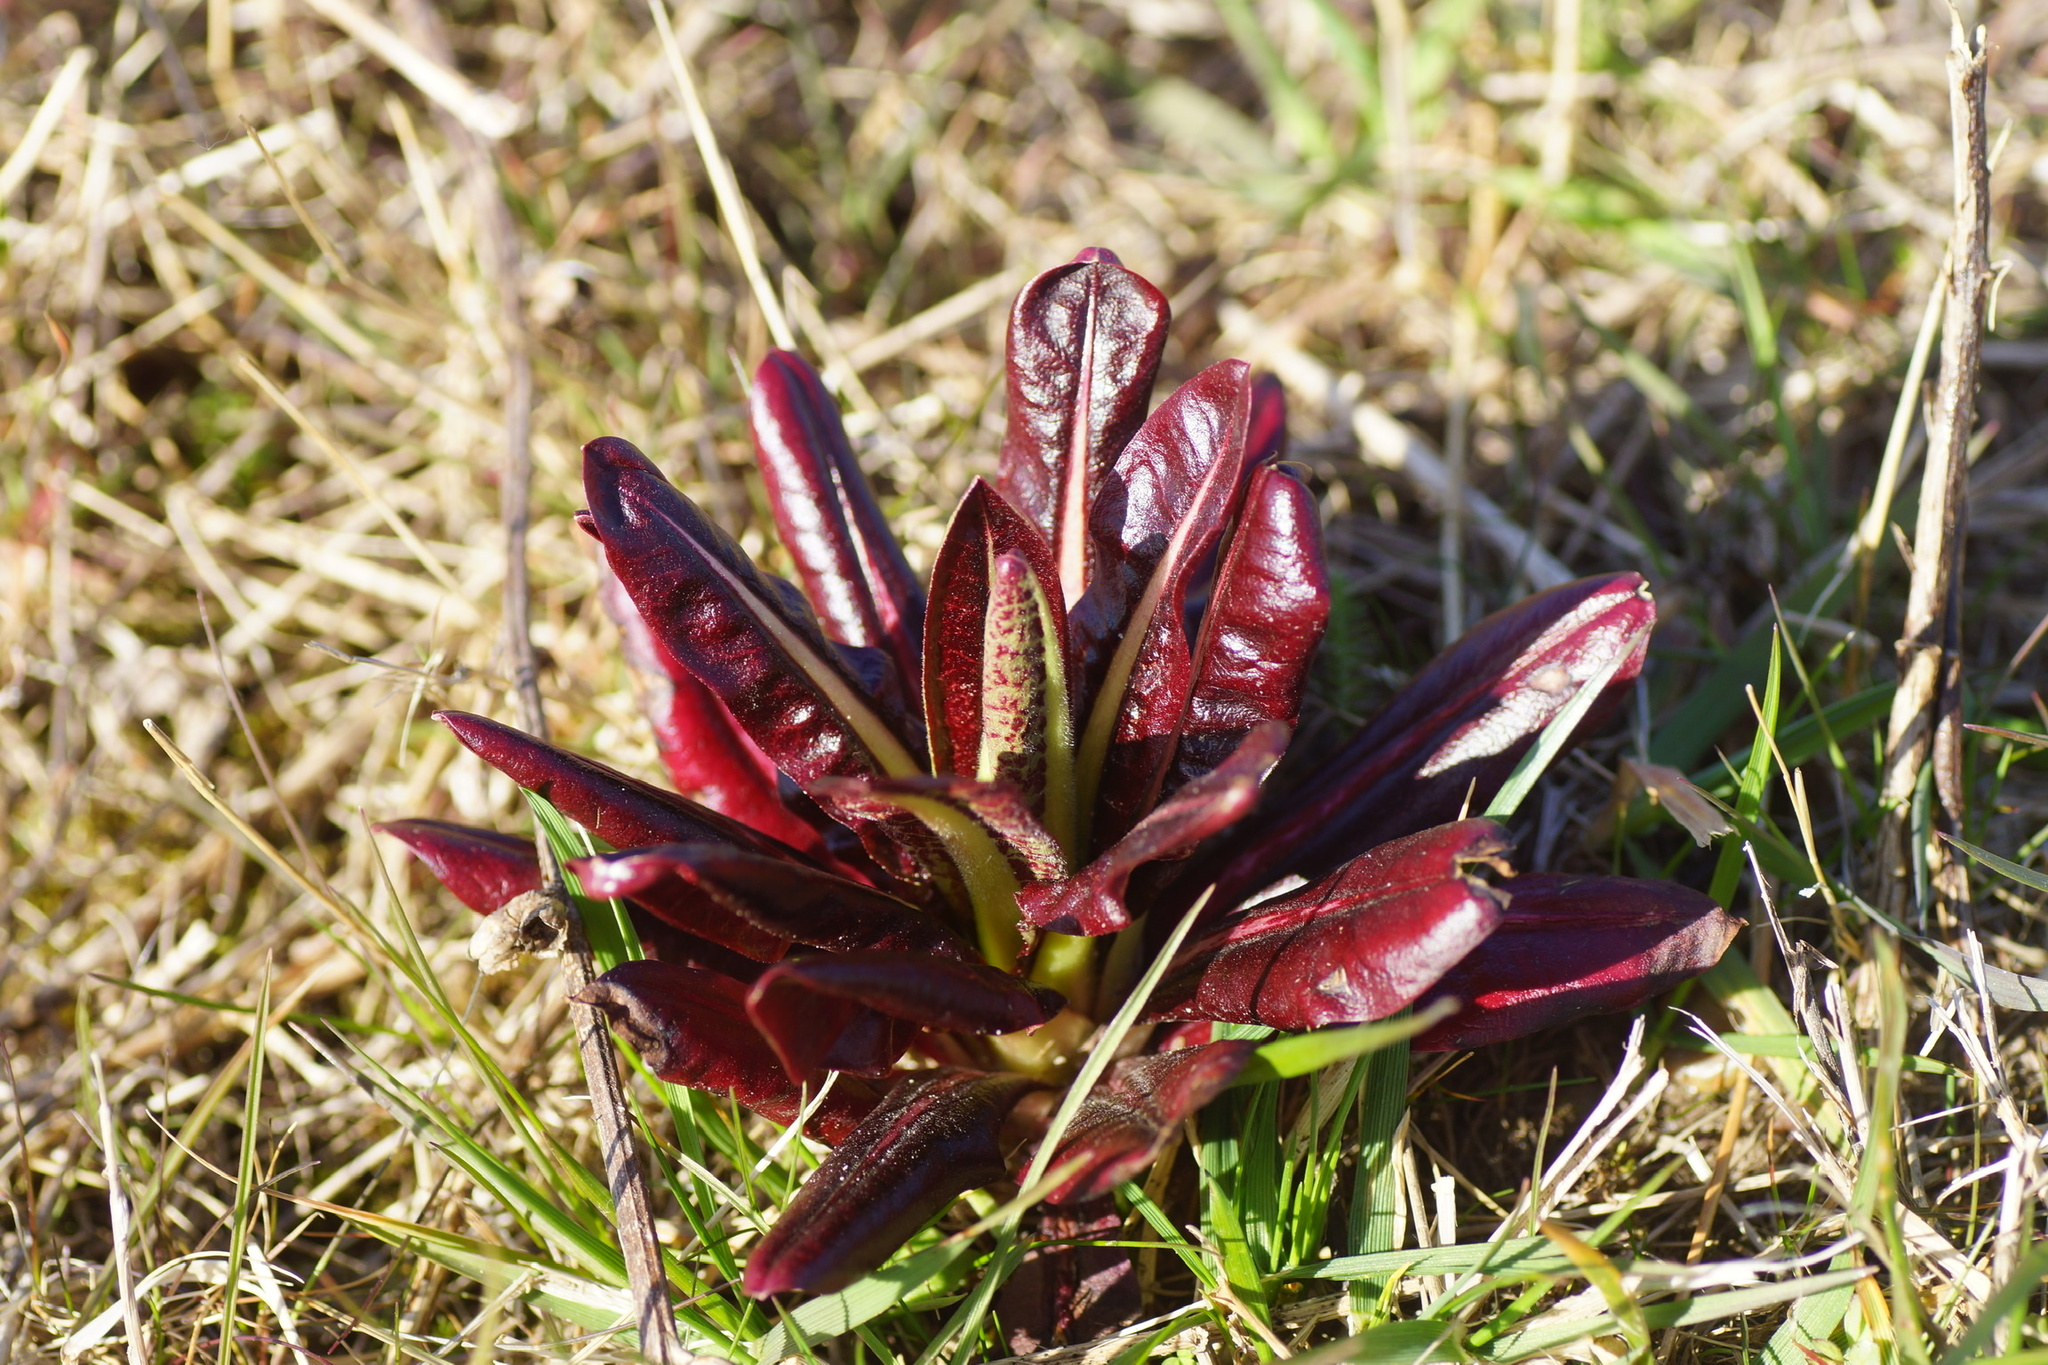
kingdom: Plantae
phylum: Tracheophyta
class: Magnoliopsida
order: Asterales
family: Asteraceae
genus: Cichorium
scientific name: Cichorium intybus
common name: Chicory
